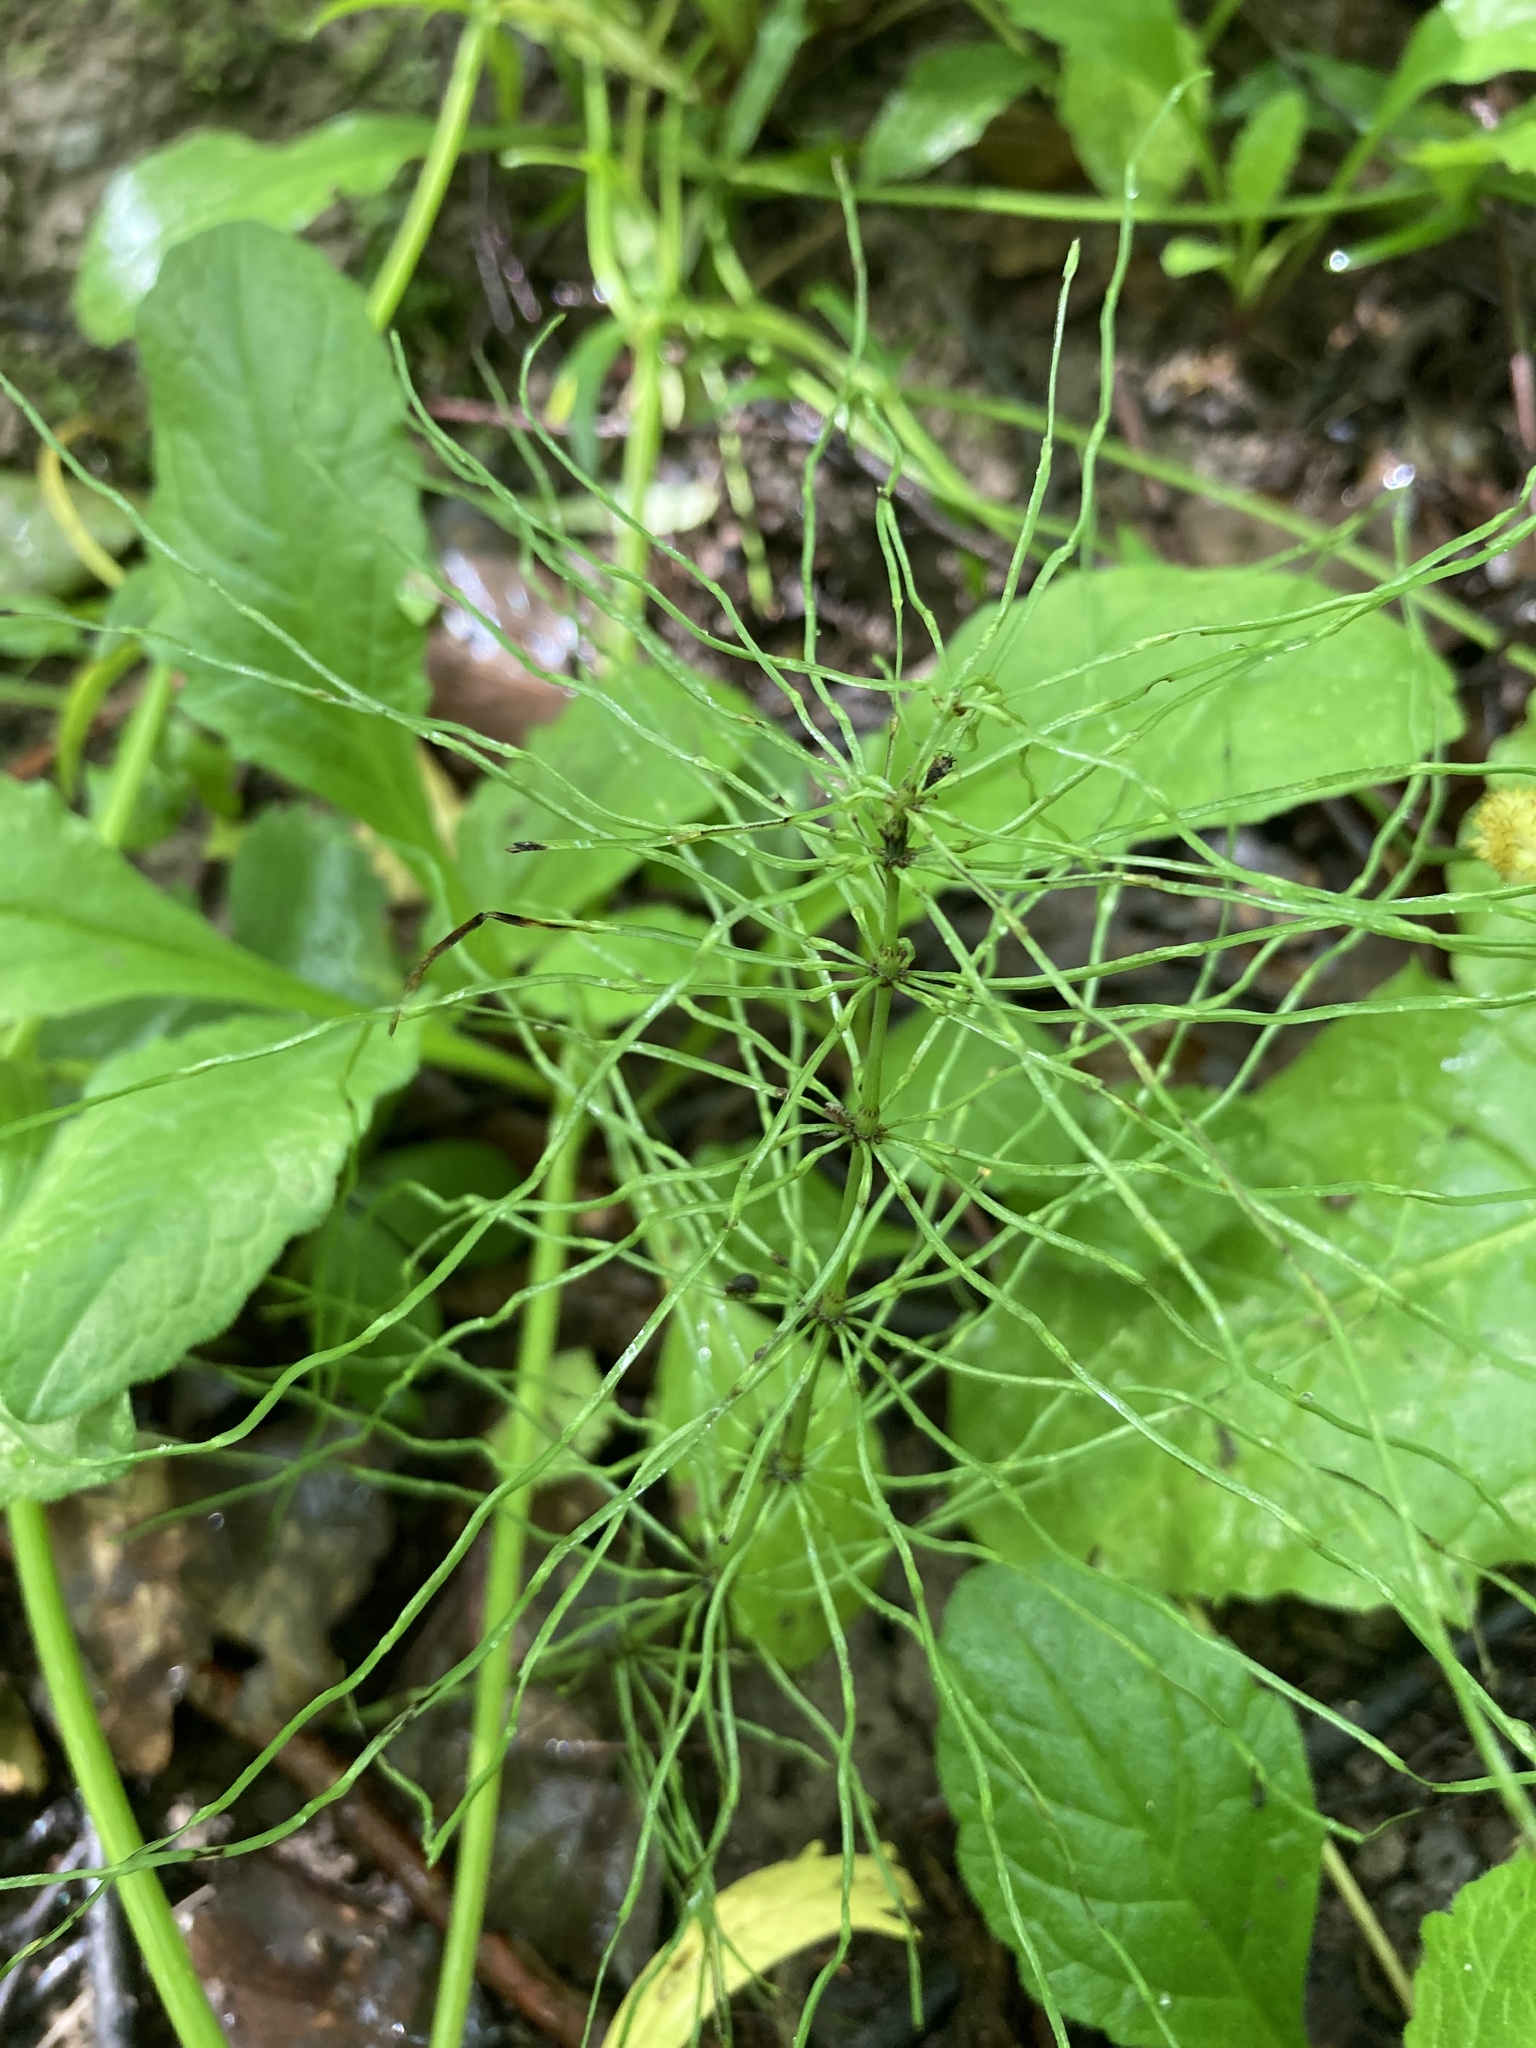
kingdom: Plantae
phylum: Tracheophyta
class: Polypodiopsida
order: Equisetales
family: Equisetaceae
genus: Equisetum
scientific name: Equisetum pratense
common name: Meadow horsetail
